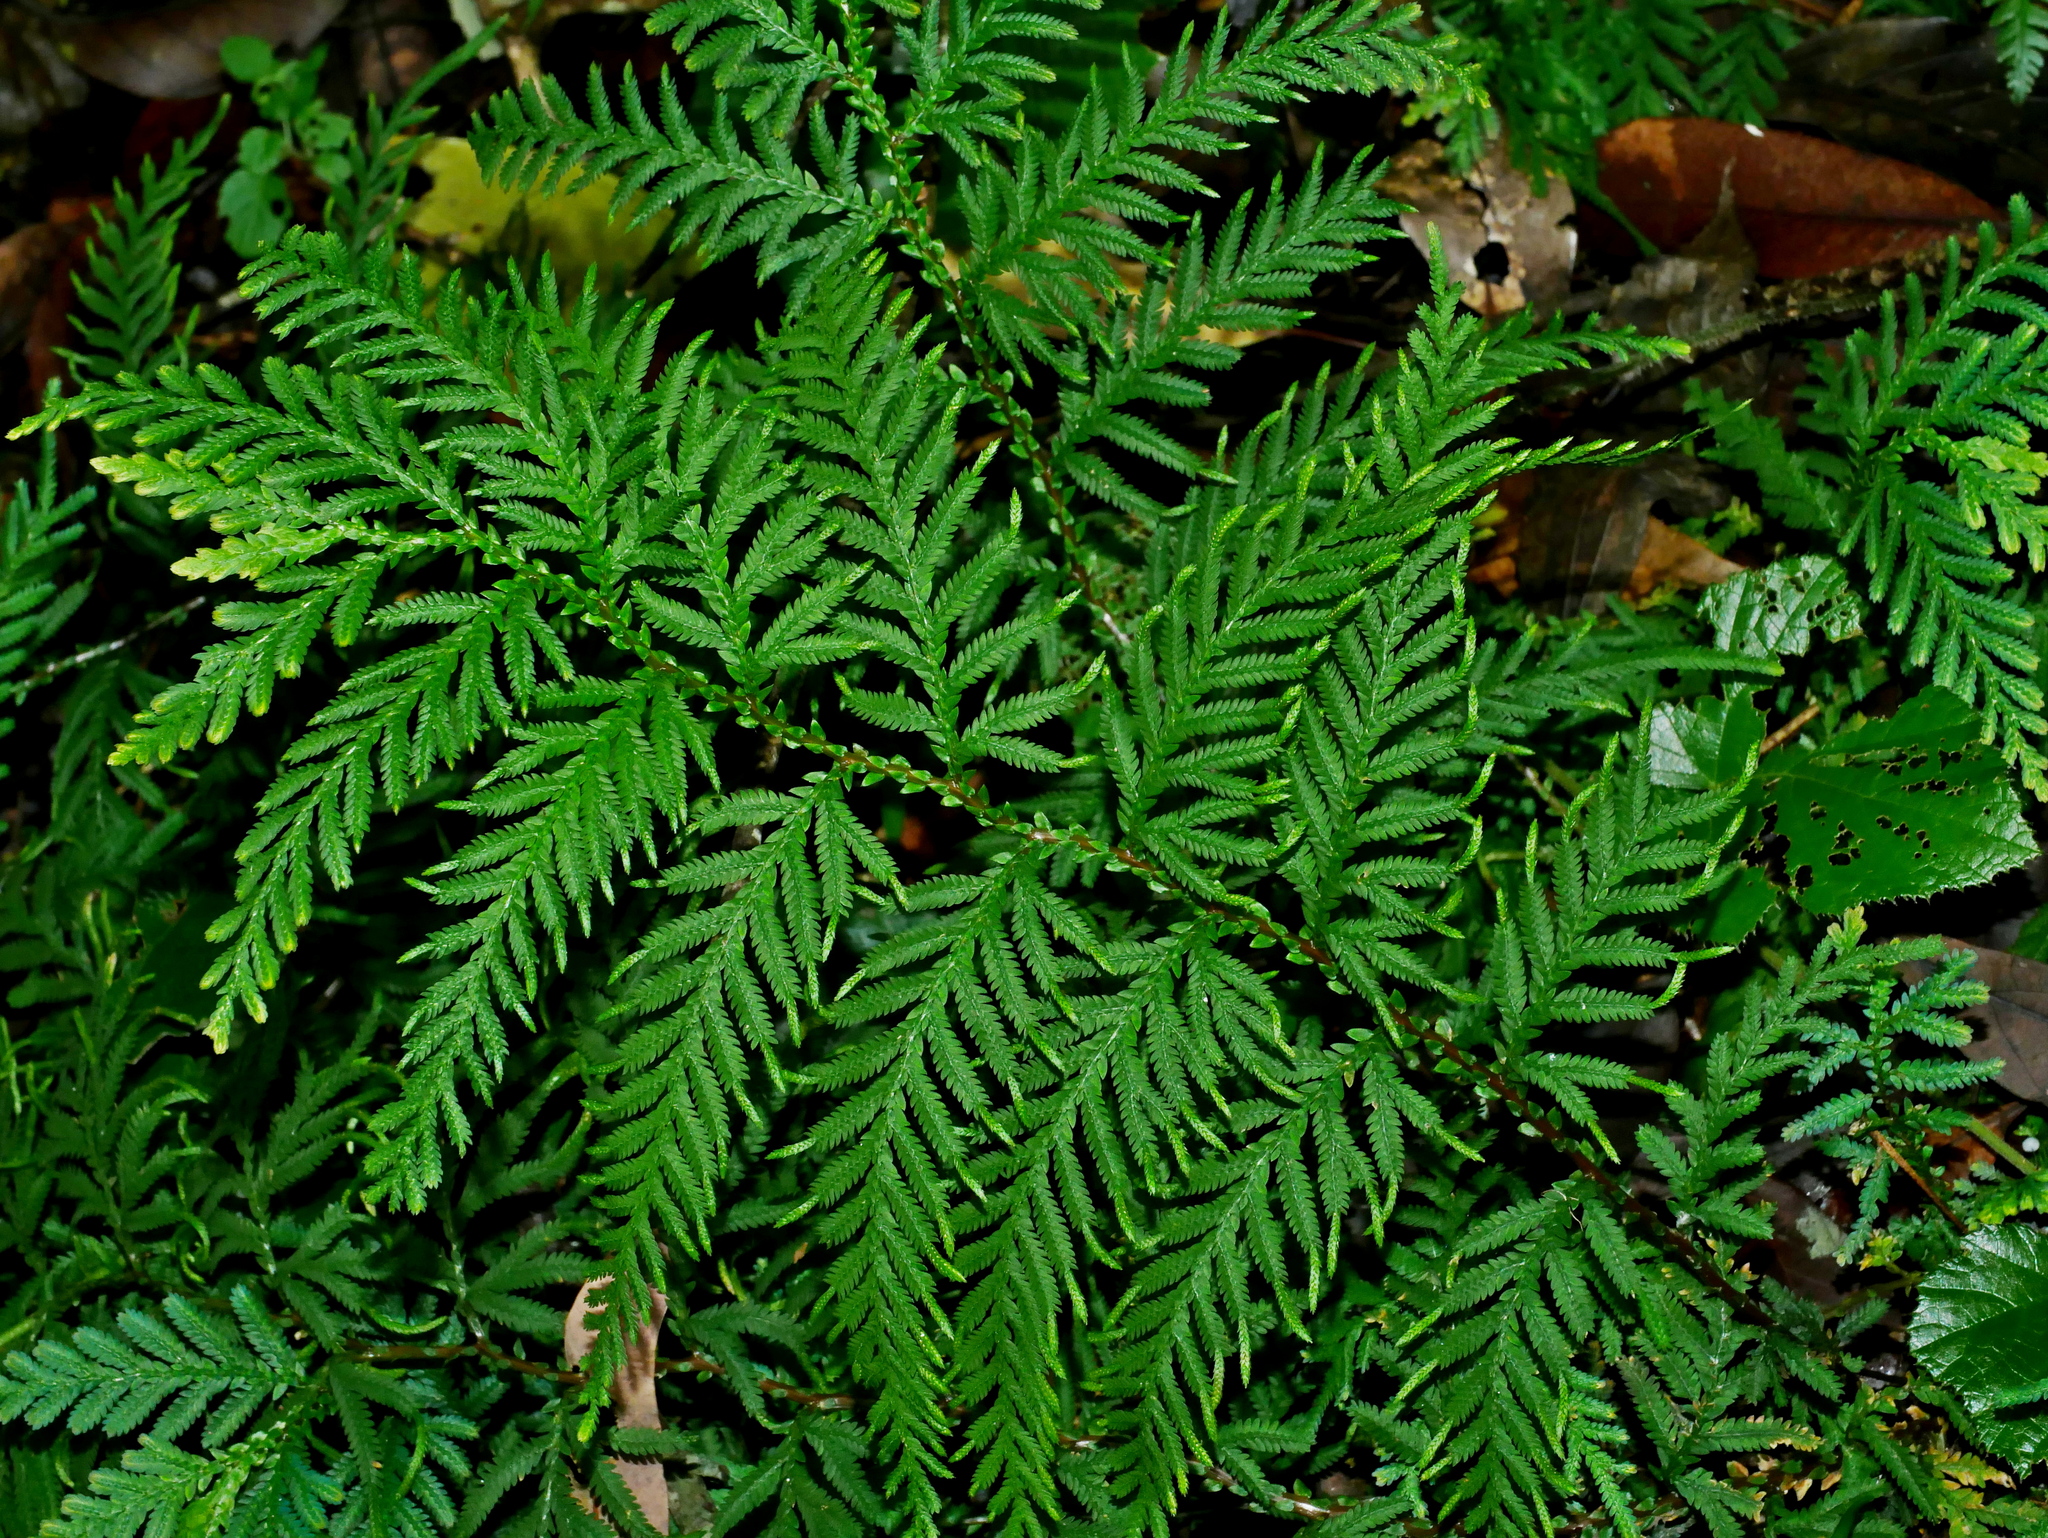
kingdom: Plantae
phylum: Tracheophyta
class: Lycopodiopsida
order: Selaginellales
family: Selaginellaceae
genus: Selaginella
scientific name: Selaginella delicatula
